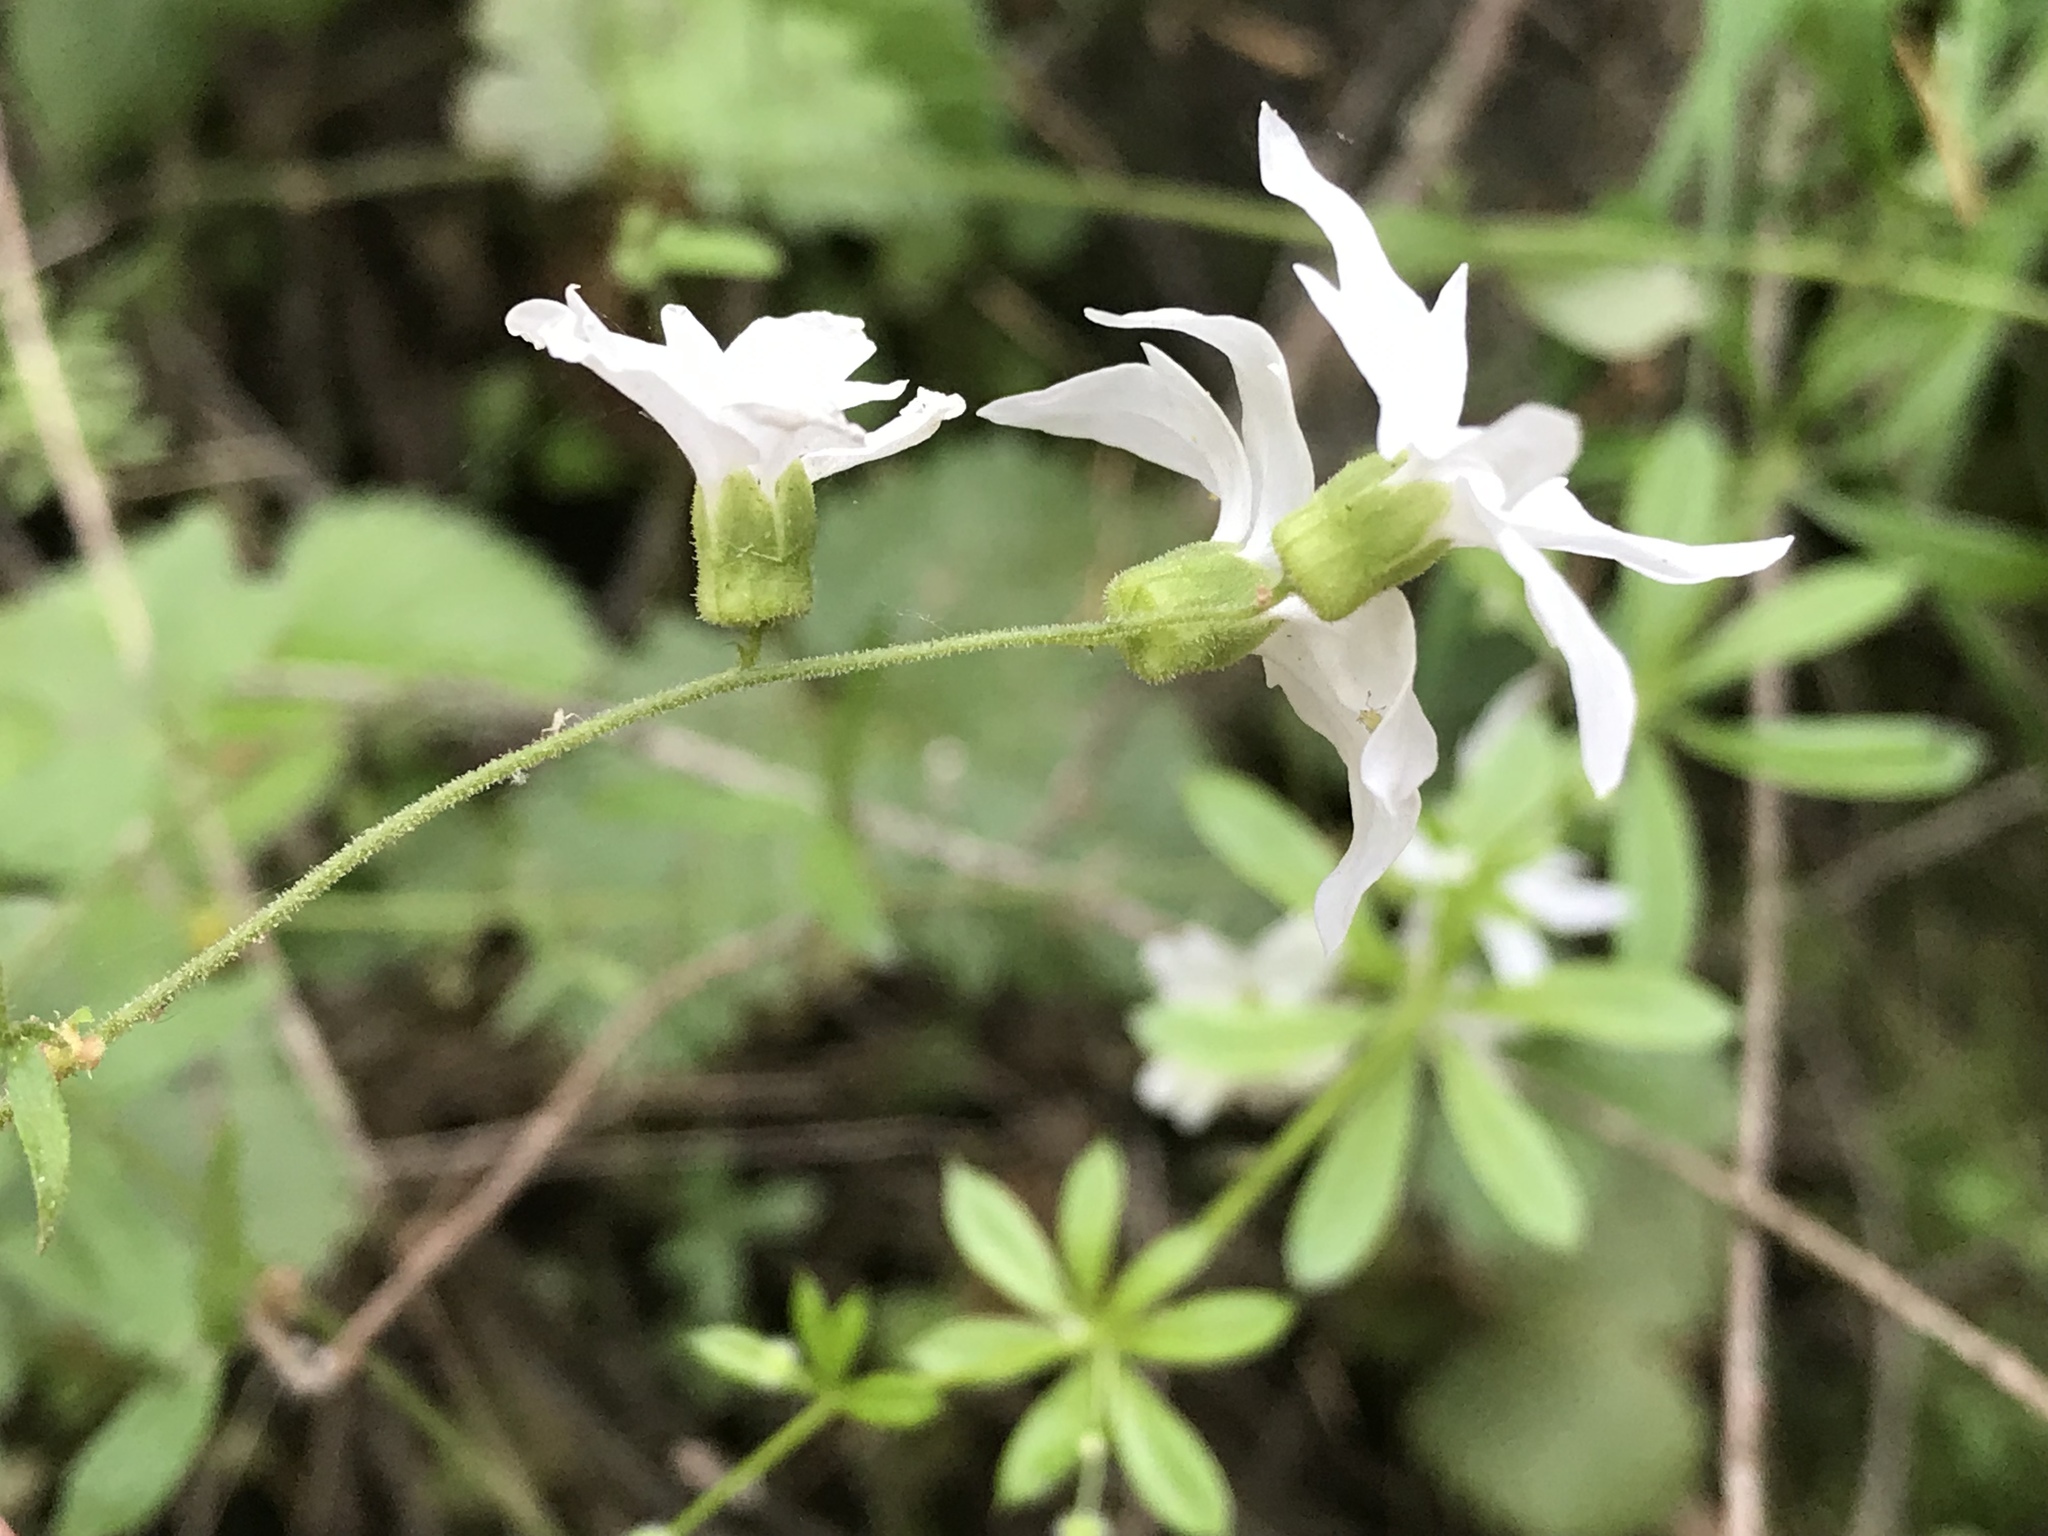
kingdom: Plantae
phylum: Tracheophyta
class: Magnoliopsida
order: Saxifragales
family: Saxifragaceae
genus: Lithophragma
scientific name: Lithophragma heterophyllum
